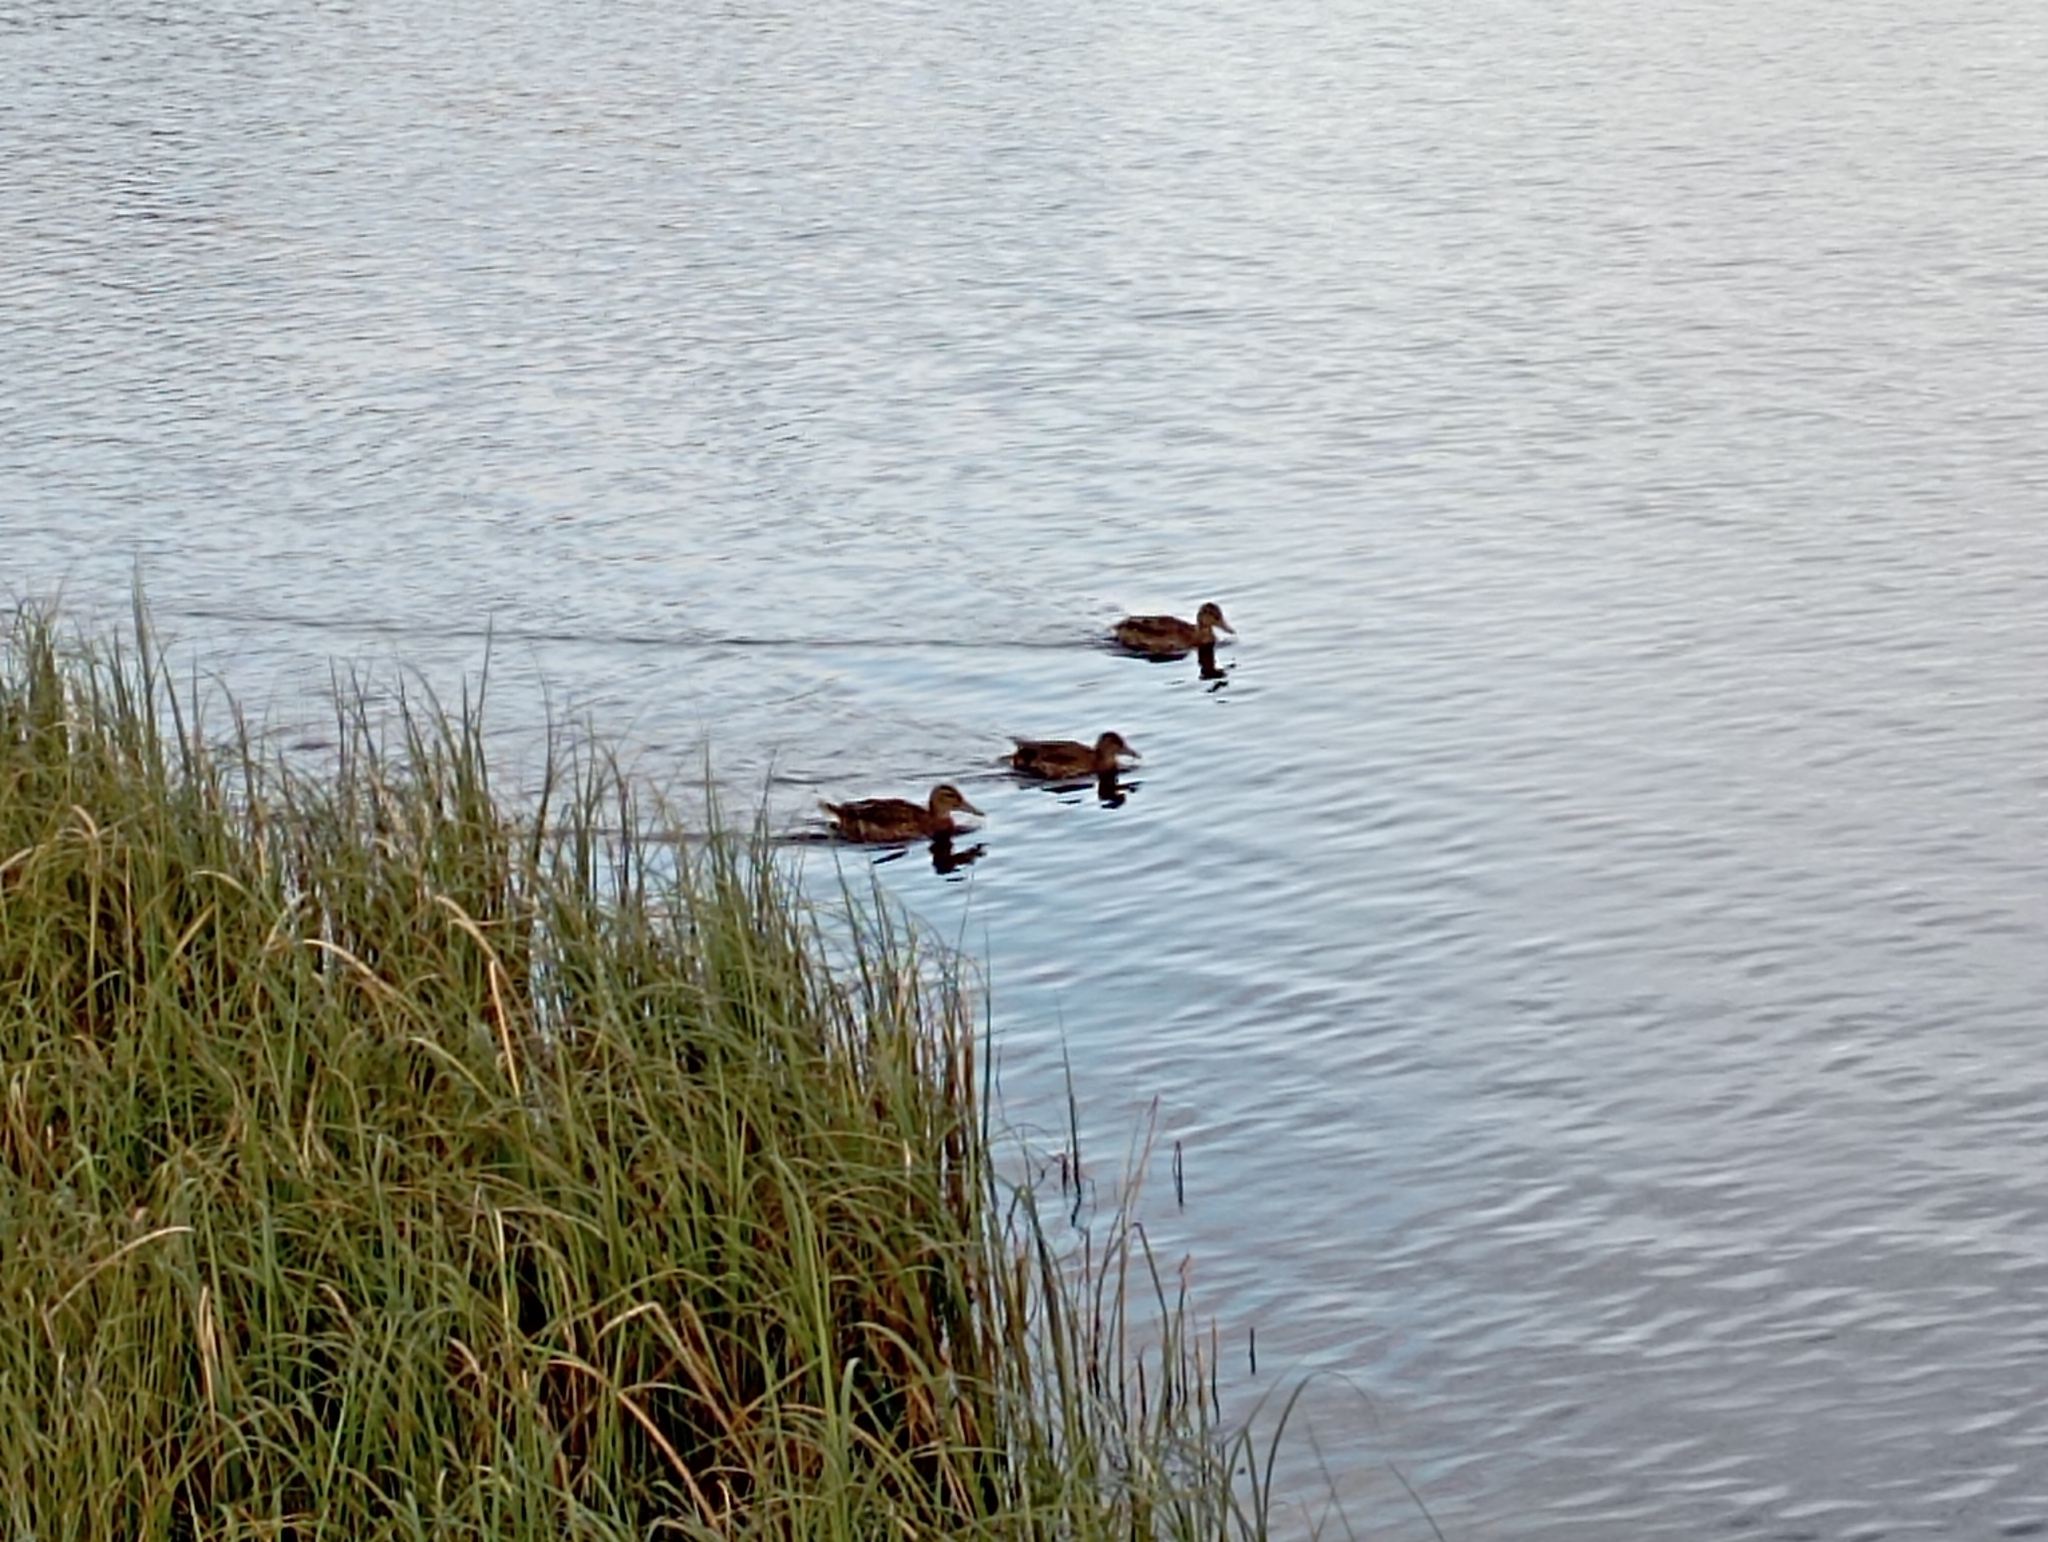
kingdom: Animalia
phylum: Chordata
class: Aves
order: Anseriformes
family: Anatidae
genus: Anas
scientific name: Anas platyrhynchos
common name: Mallard
